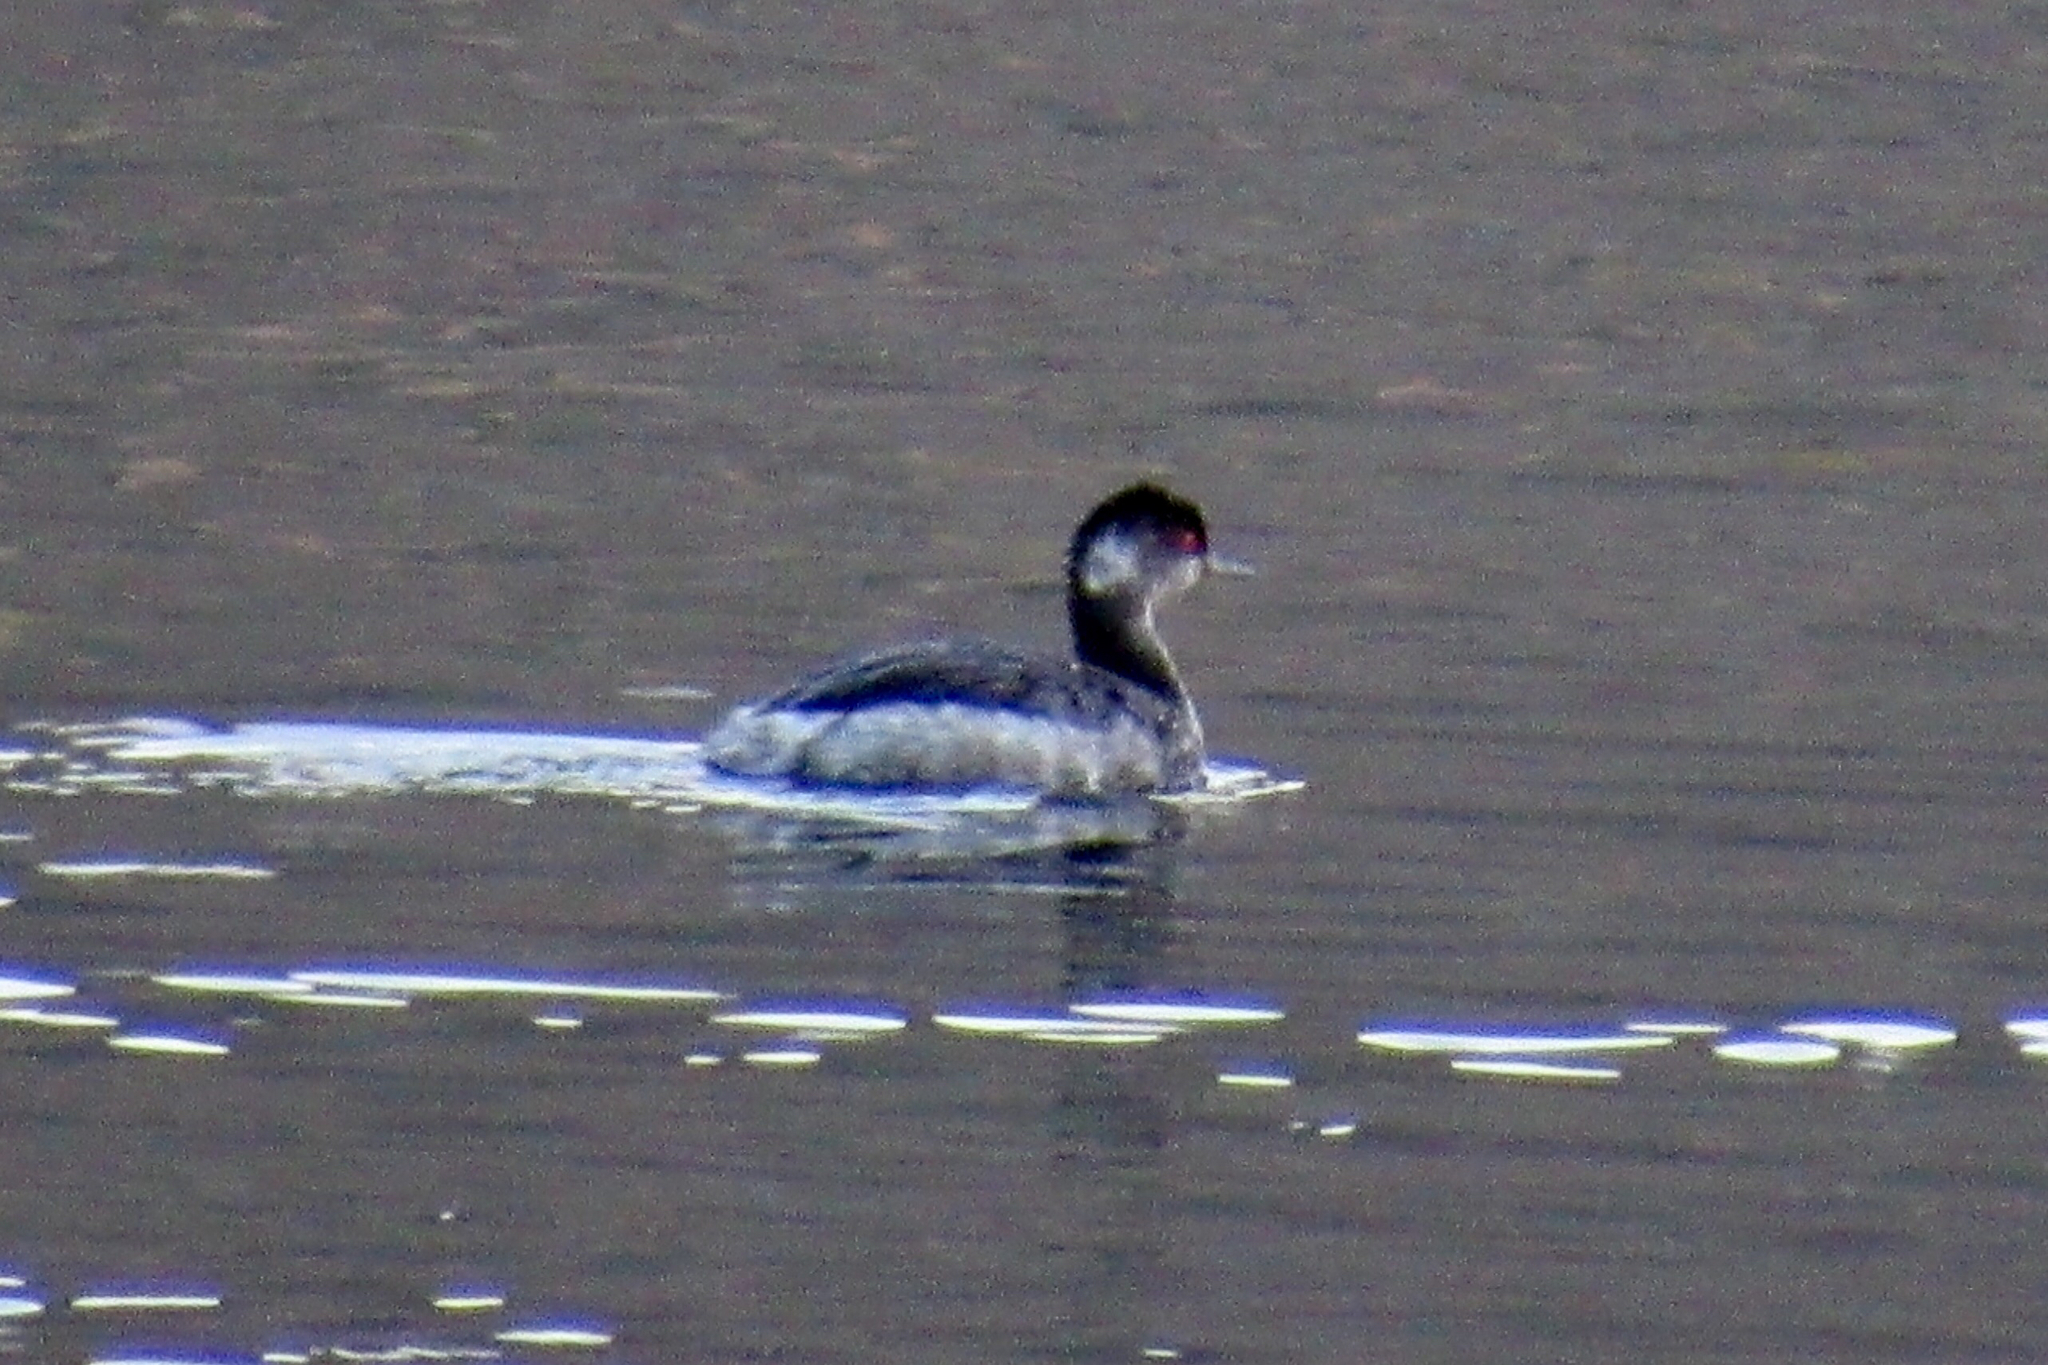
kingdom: Animalia
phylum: Chordata
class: Aves
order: Podicipediformes
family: Podicipedidae
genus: Podiceps
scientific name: Podiceps nigricollis
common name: Black-necked grebe
